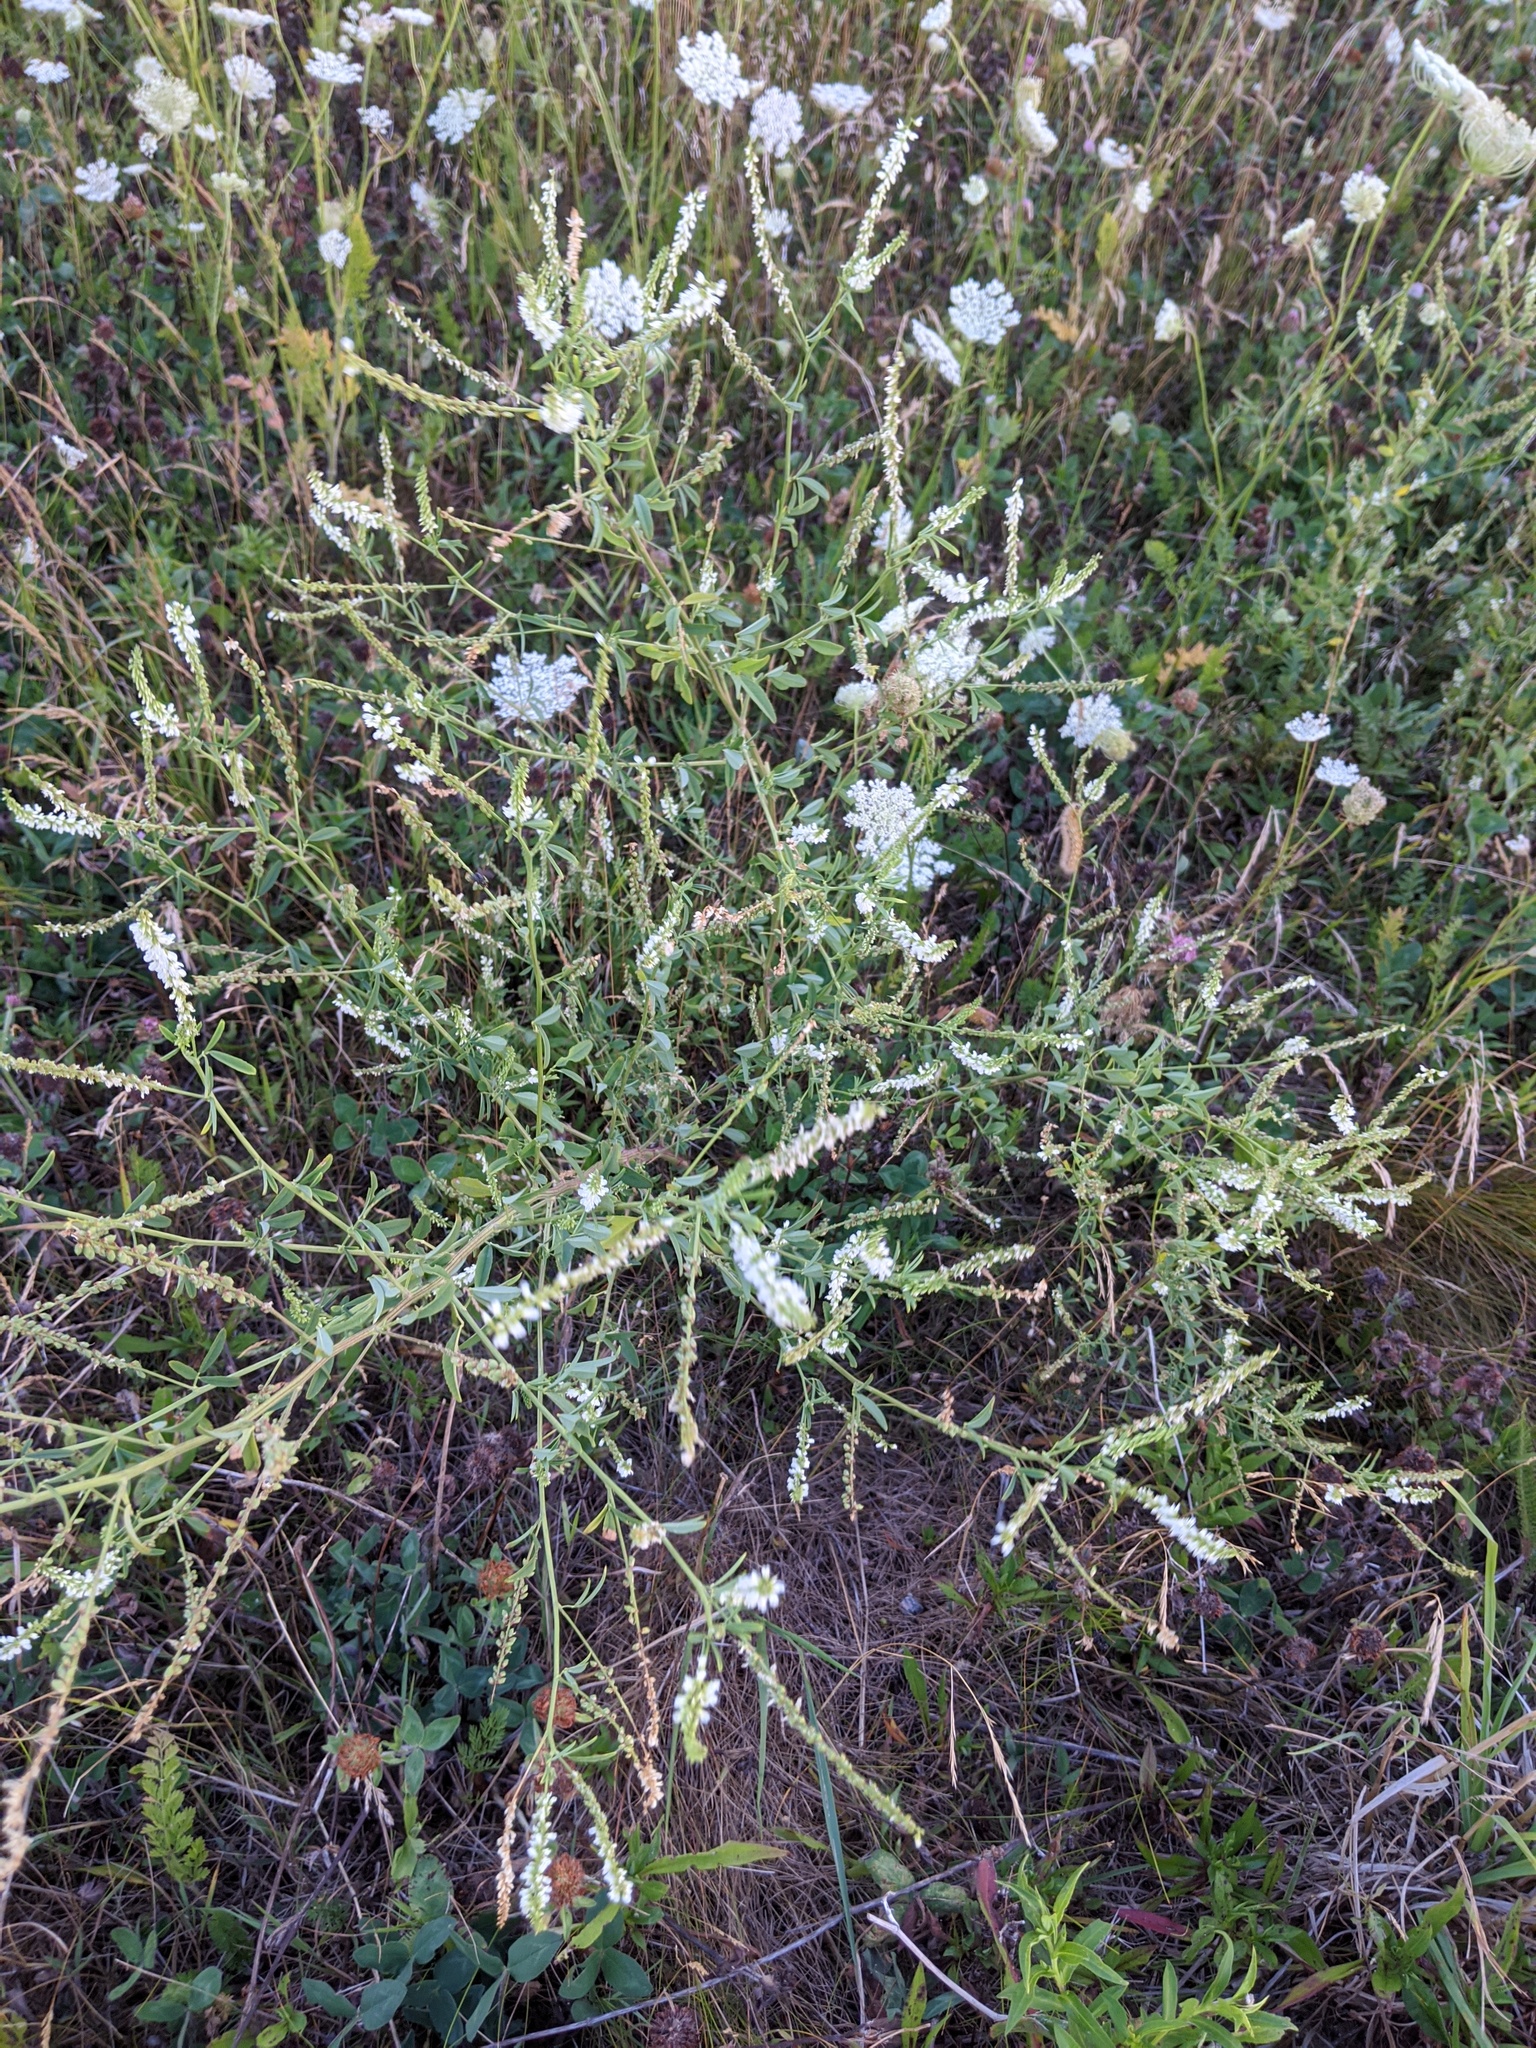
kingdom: Plantae
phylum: Tracheophyta
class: Magnoliopsida
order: Fabales
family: Fabaceae
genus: Melilotus
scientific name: Melilotus albus
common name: White melilot
